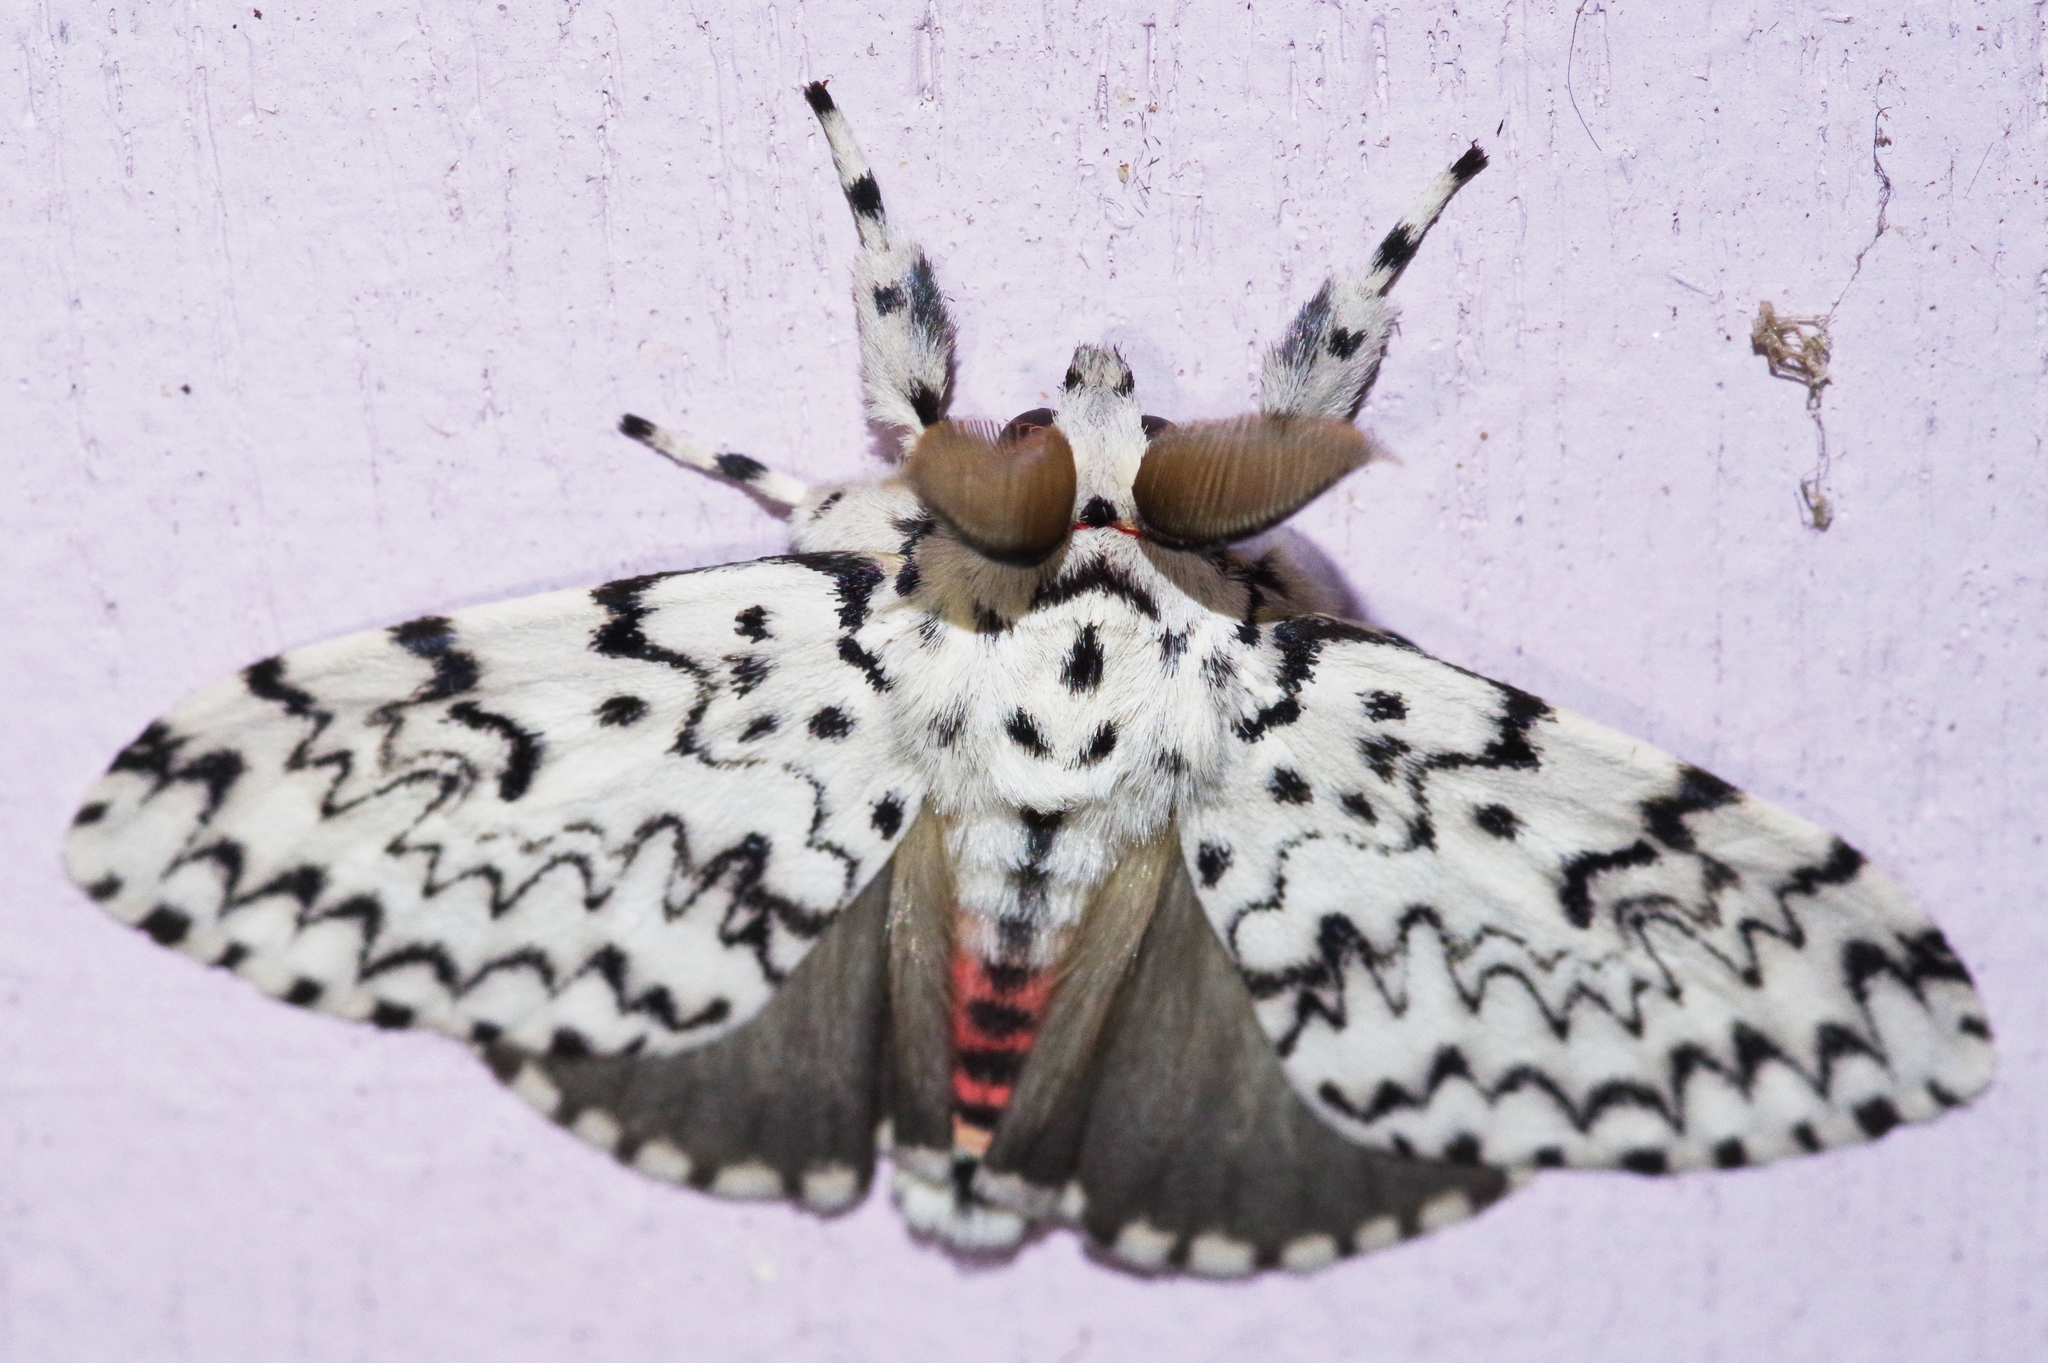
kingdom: Animalia
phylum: Arthropoda
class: Insecta
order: Lepidoptera
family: Erebidae
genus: Lymantria
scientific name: Lymantria minomonis
